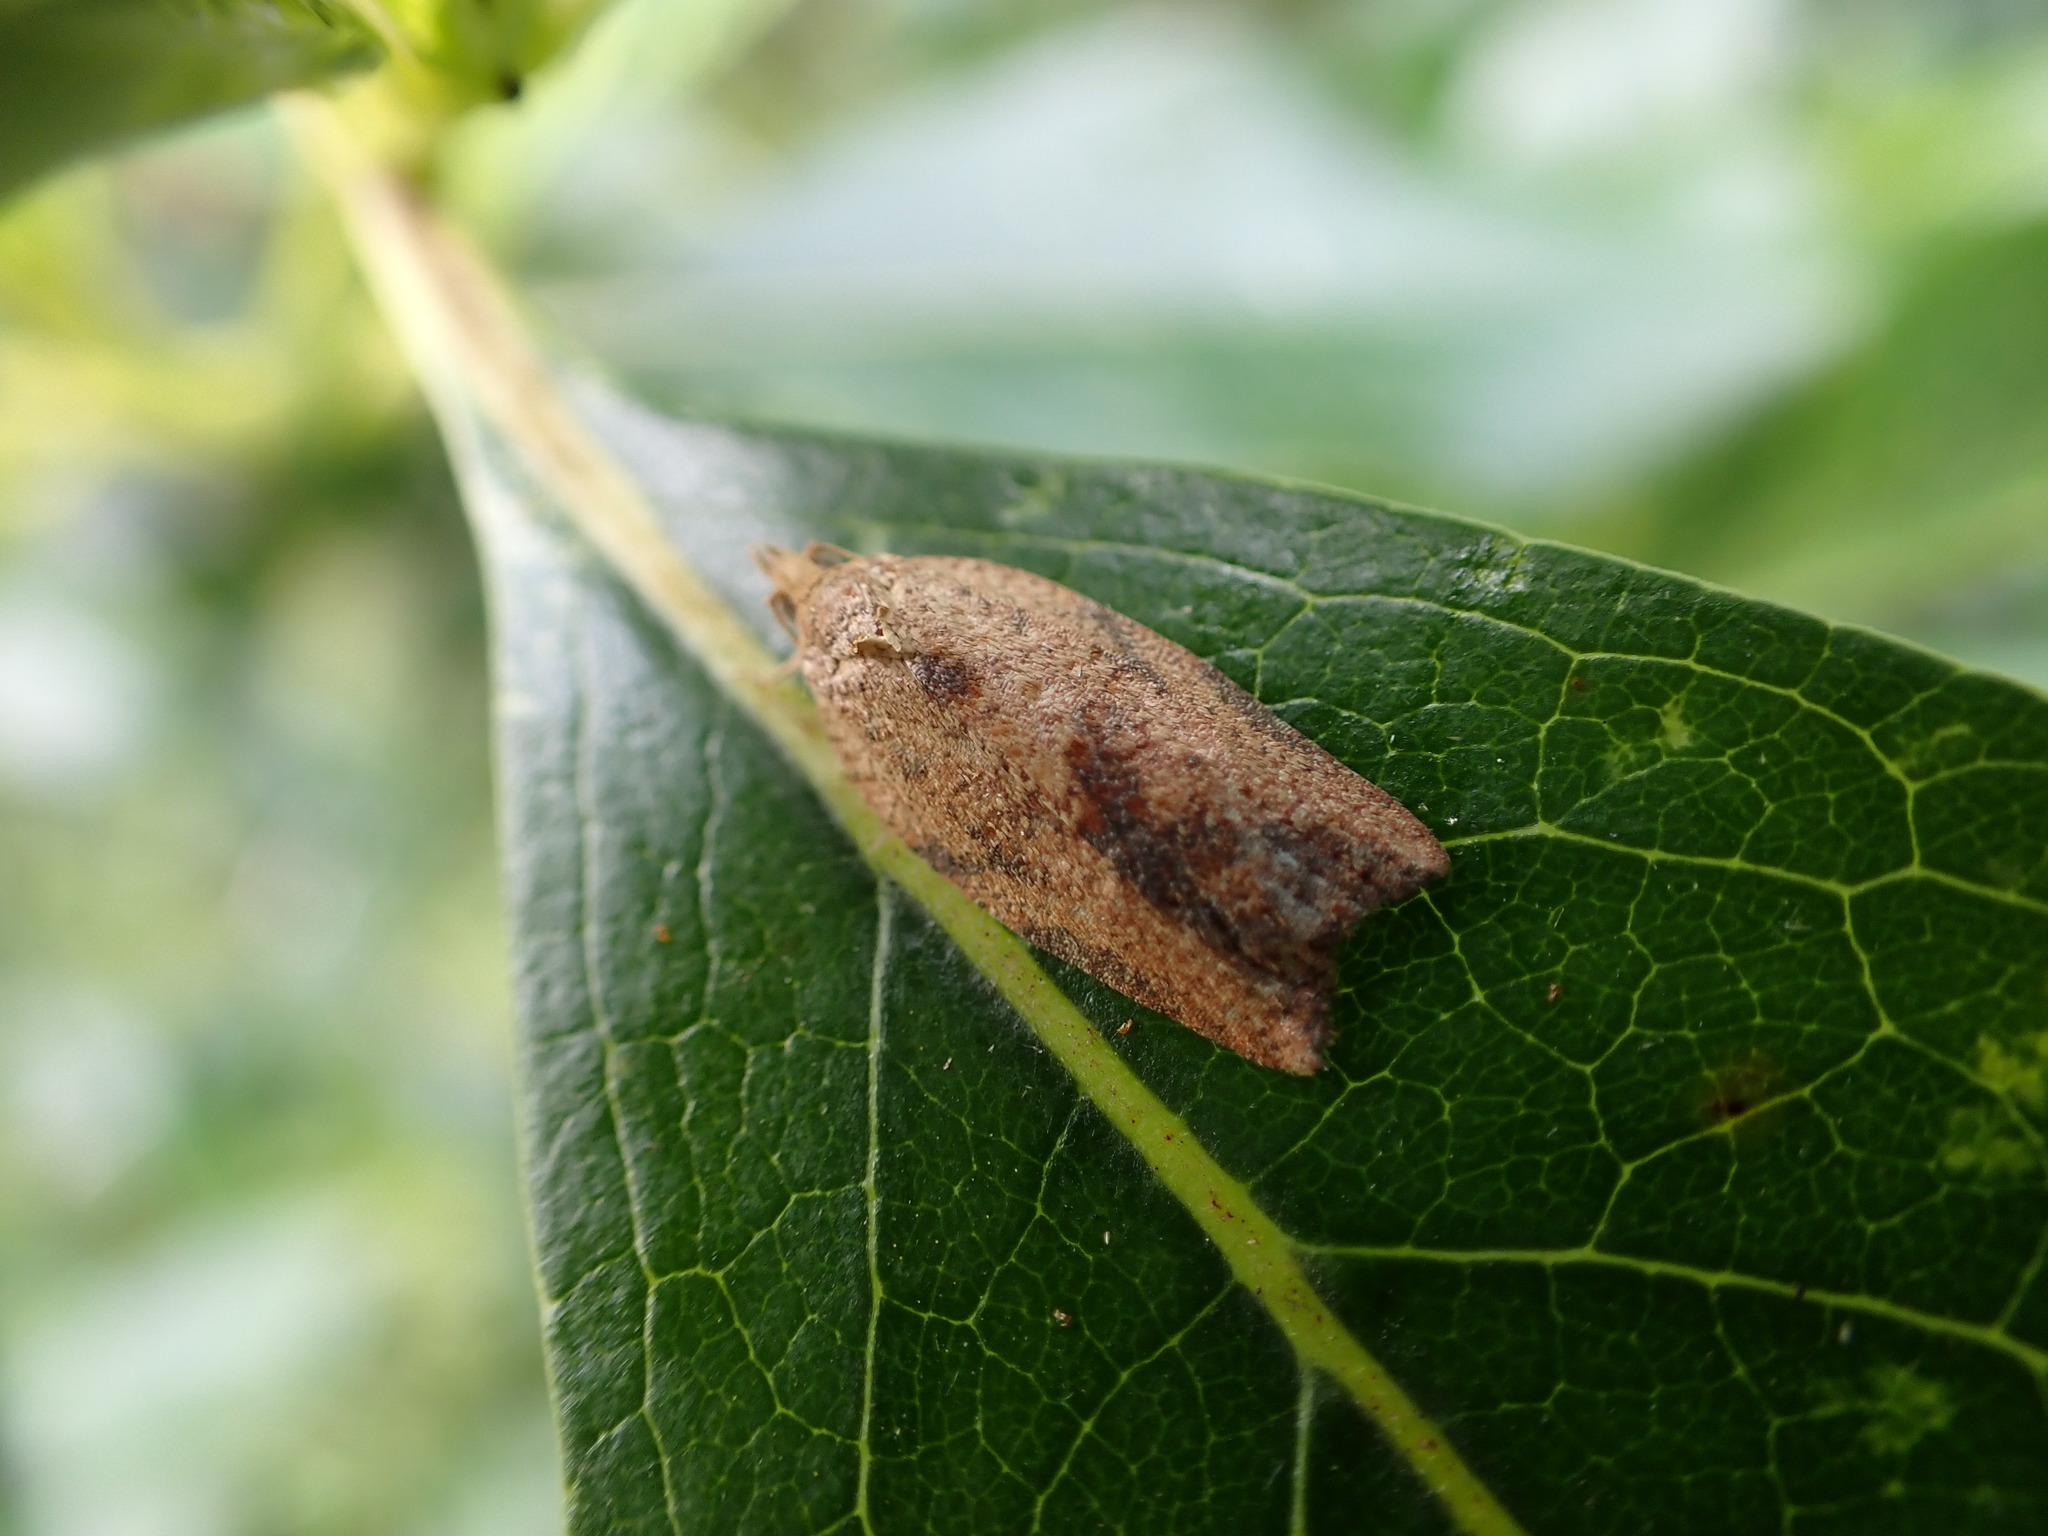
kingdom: Animalia
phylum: Arthropoda
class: Insecta
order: Lepidoptera
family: Tortricidae
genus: Epiphyas
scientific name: Epiphyas postvittana
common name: Light brown apple moth
